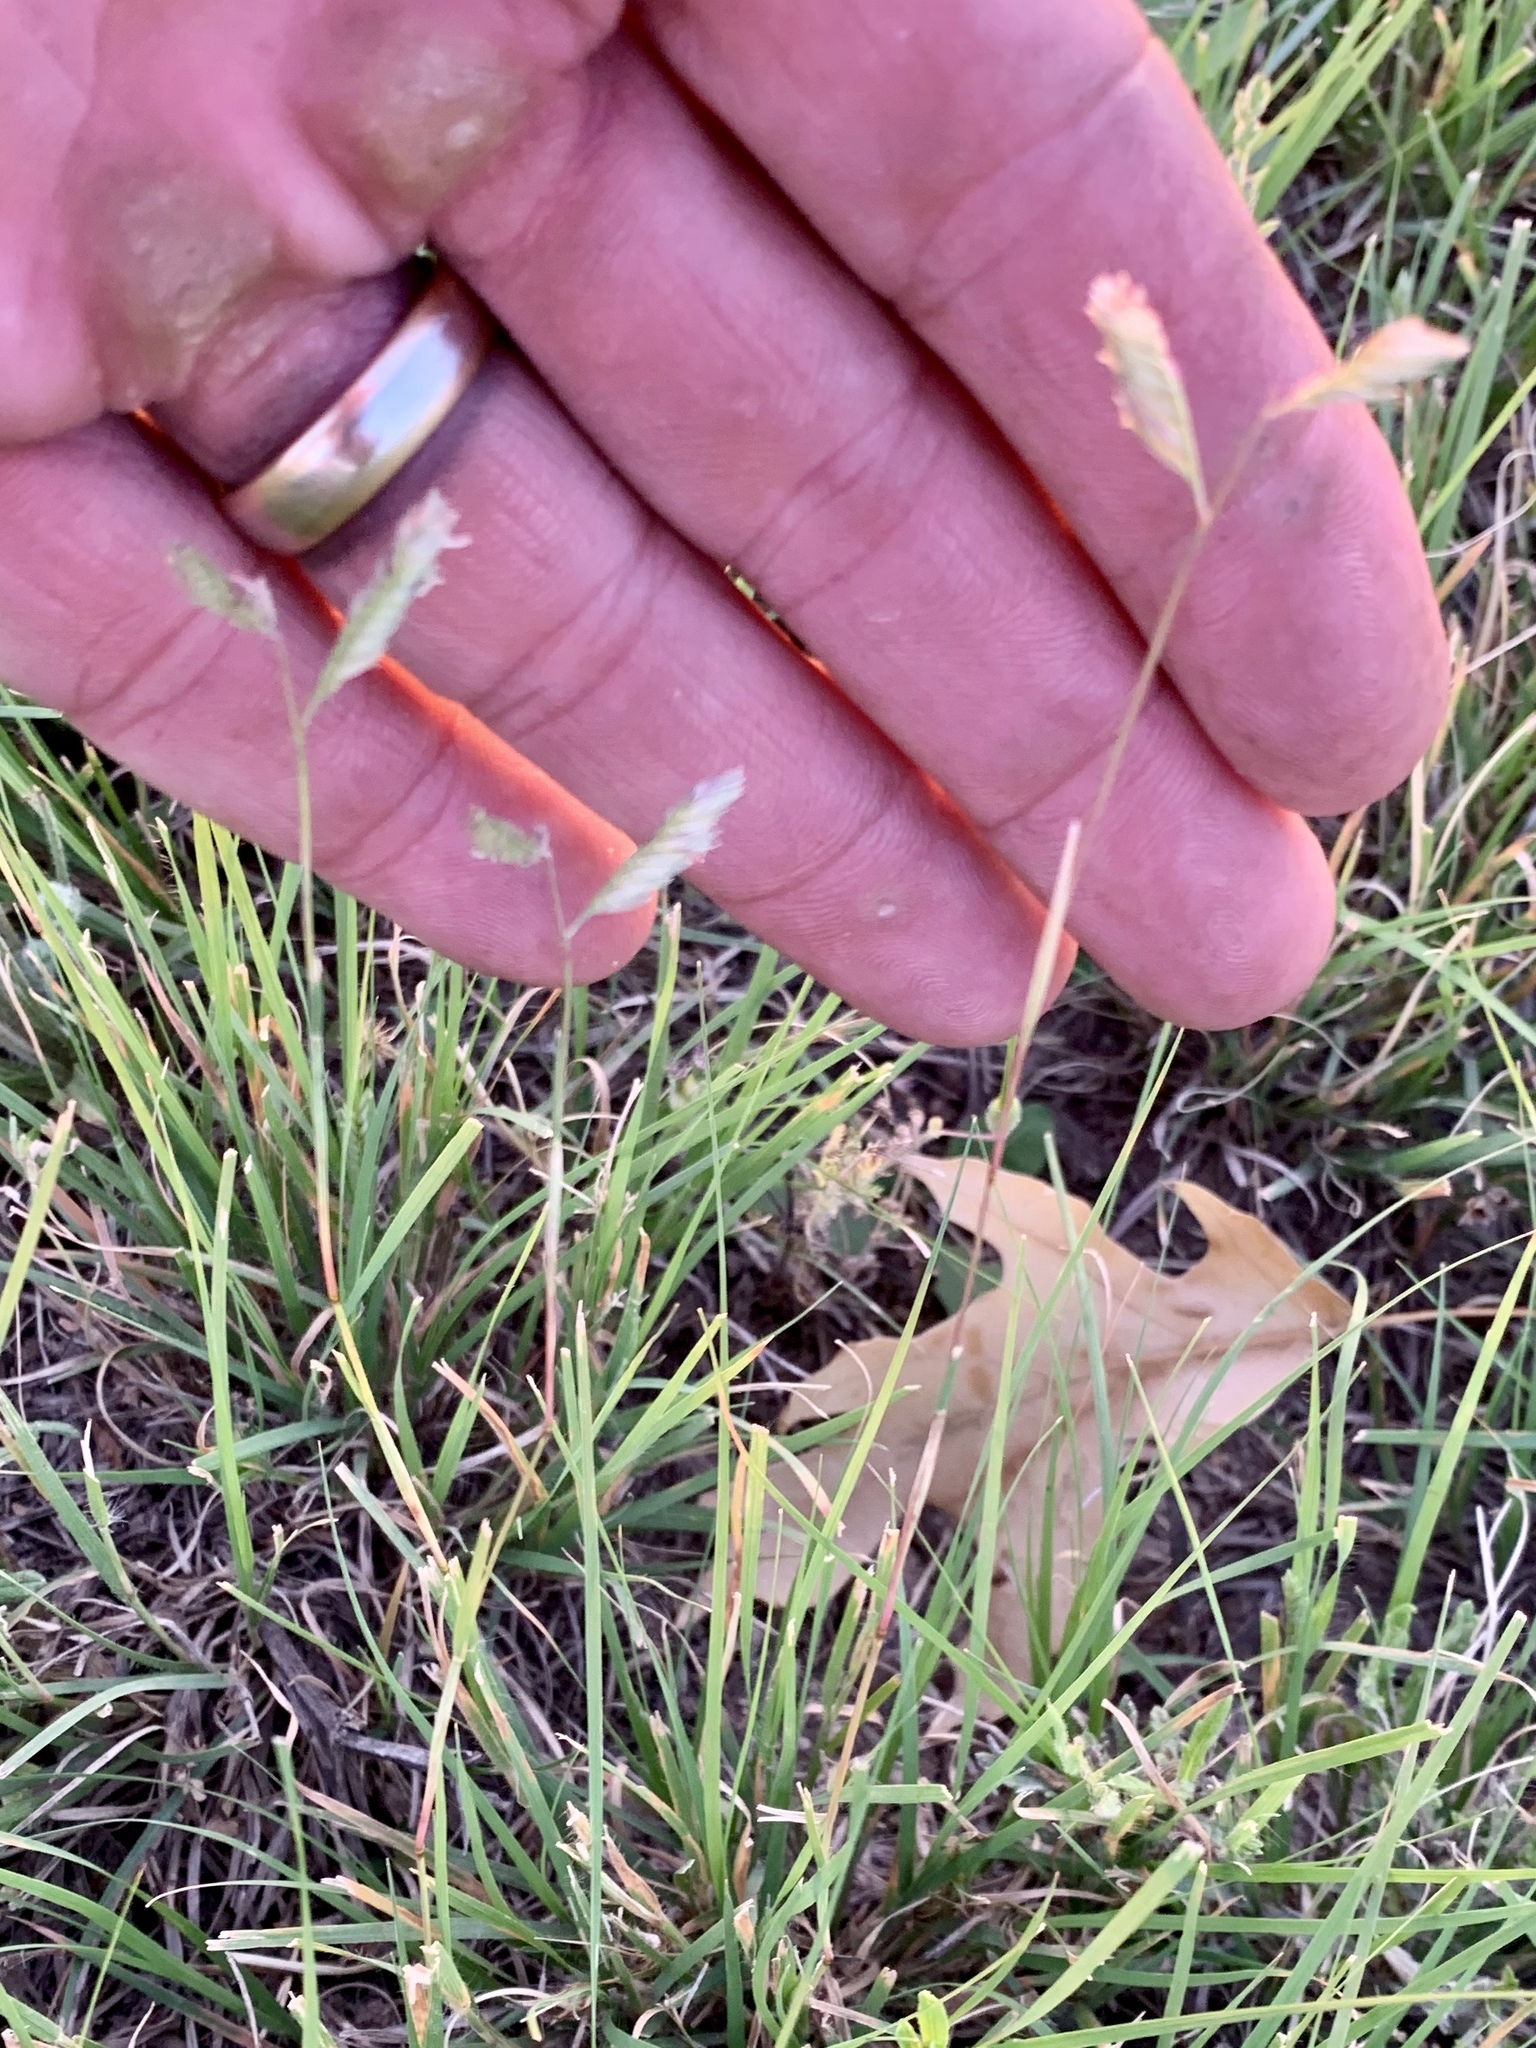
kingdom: Plantae
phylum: Tracheophyta
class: Liliopsida
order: Poales
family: Poaceae
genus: Bouteloua
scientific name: Bouteloua dactyloides
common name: Buffalo grass
